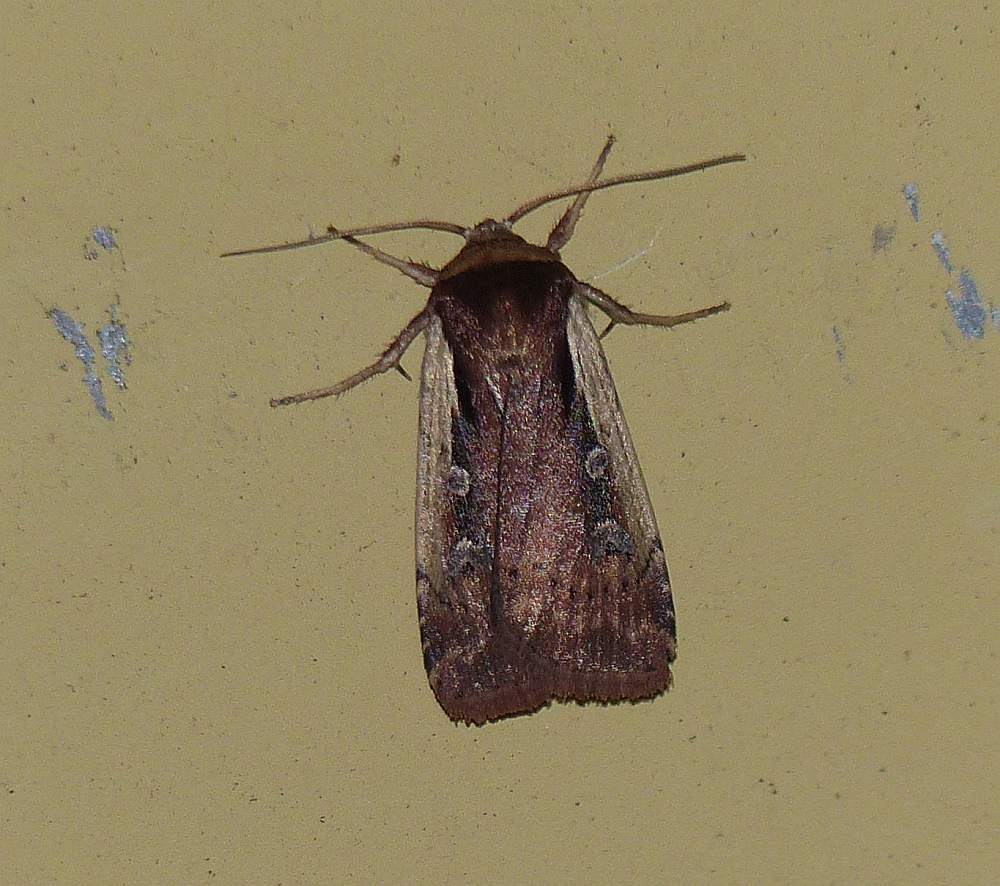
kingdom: Animalia
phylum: Arthropoda
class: Insecta
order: Lepidoptera
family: Noctuidae
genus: Ochropleura
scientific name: Ochropleura implecta
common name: Flame-shouldered dart
